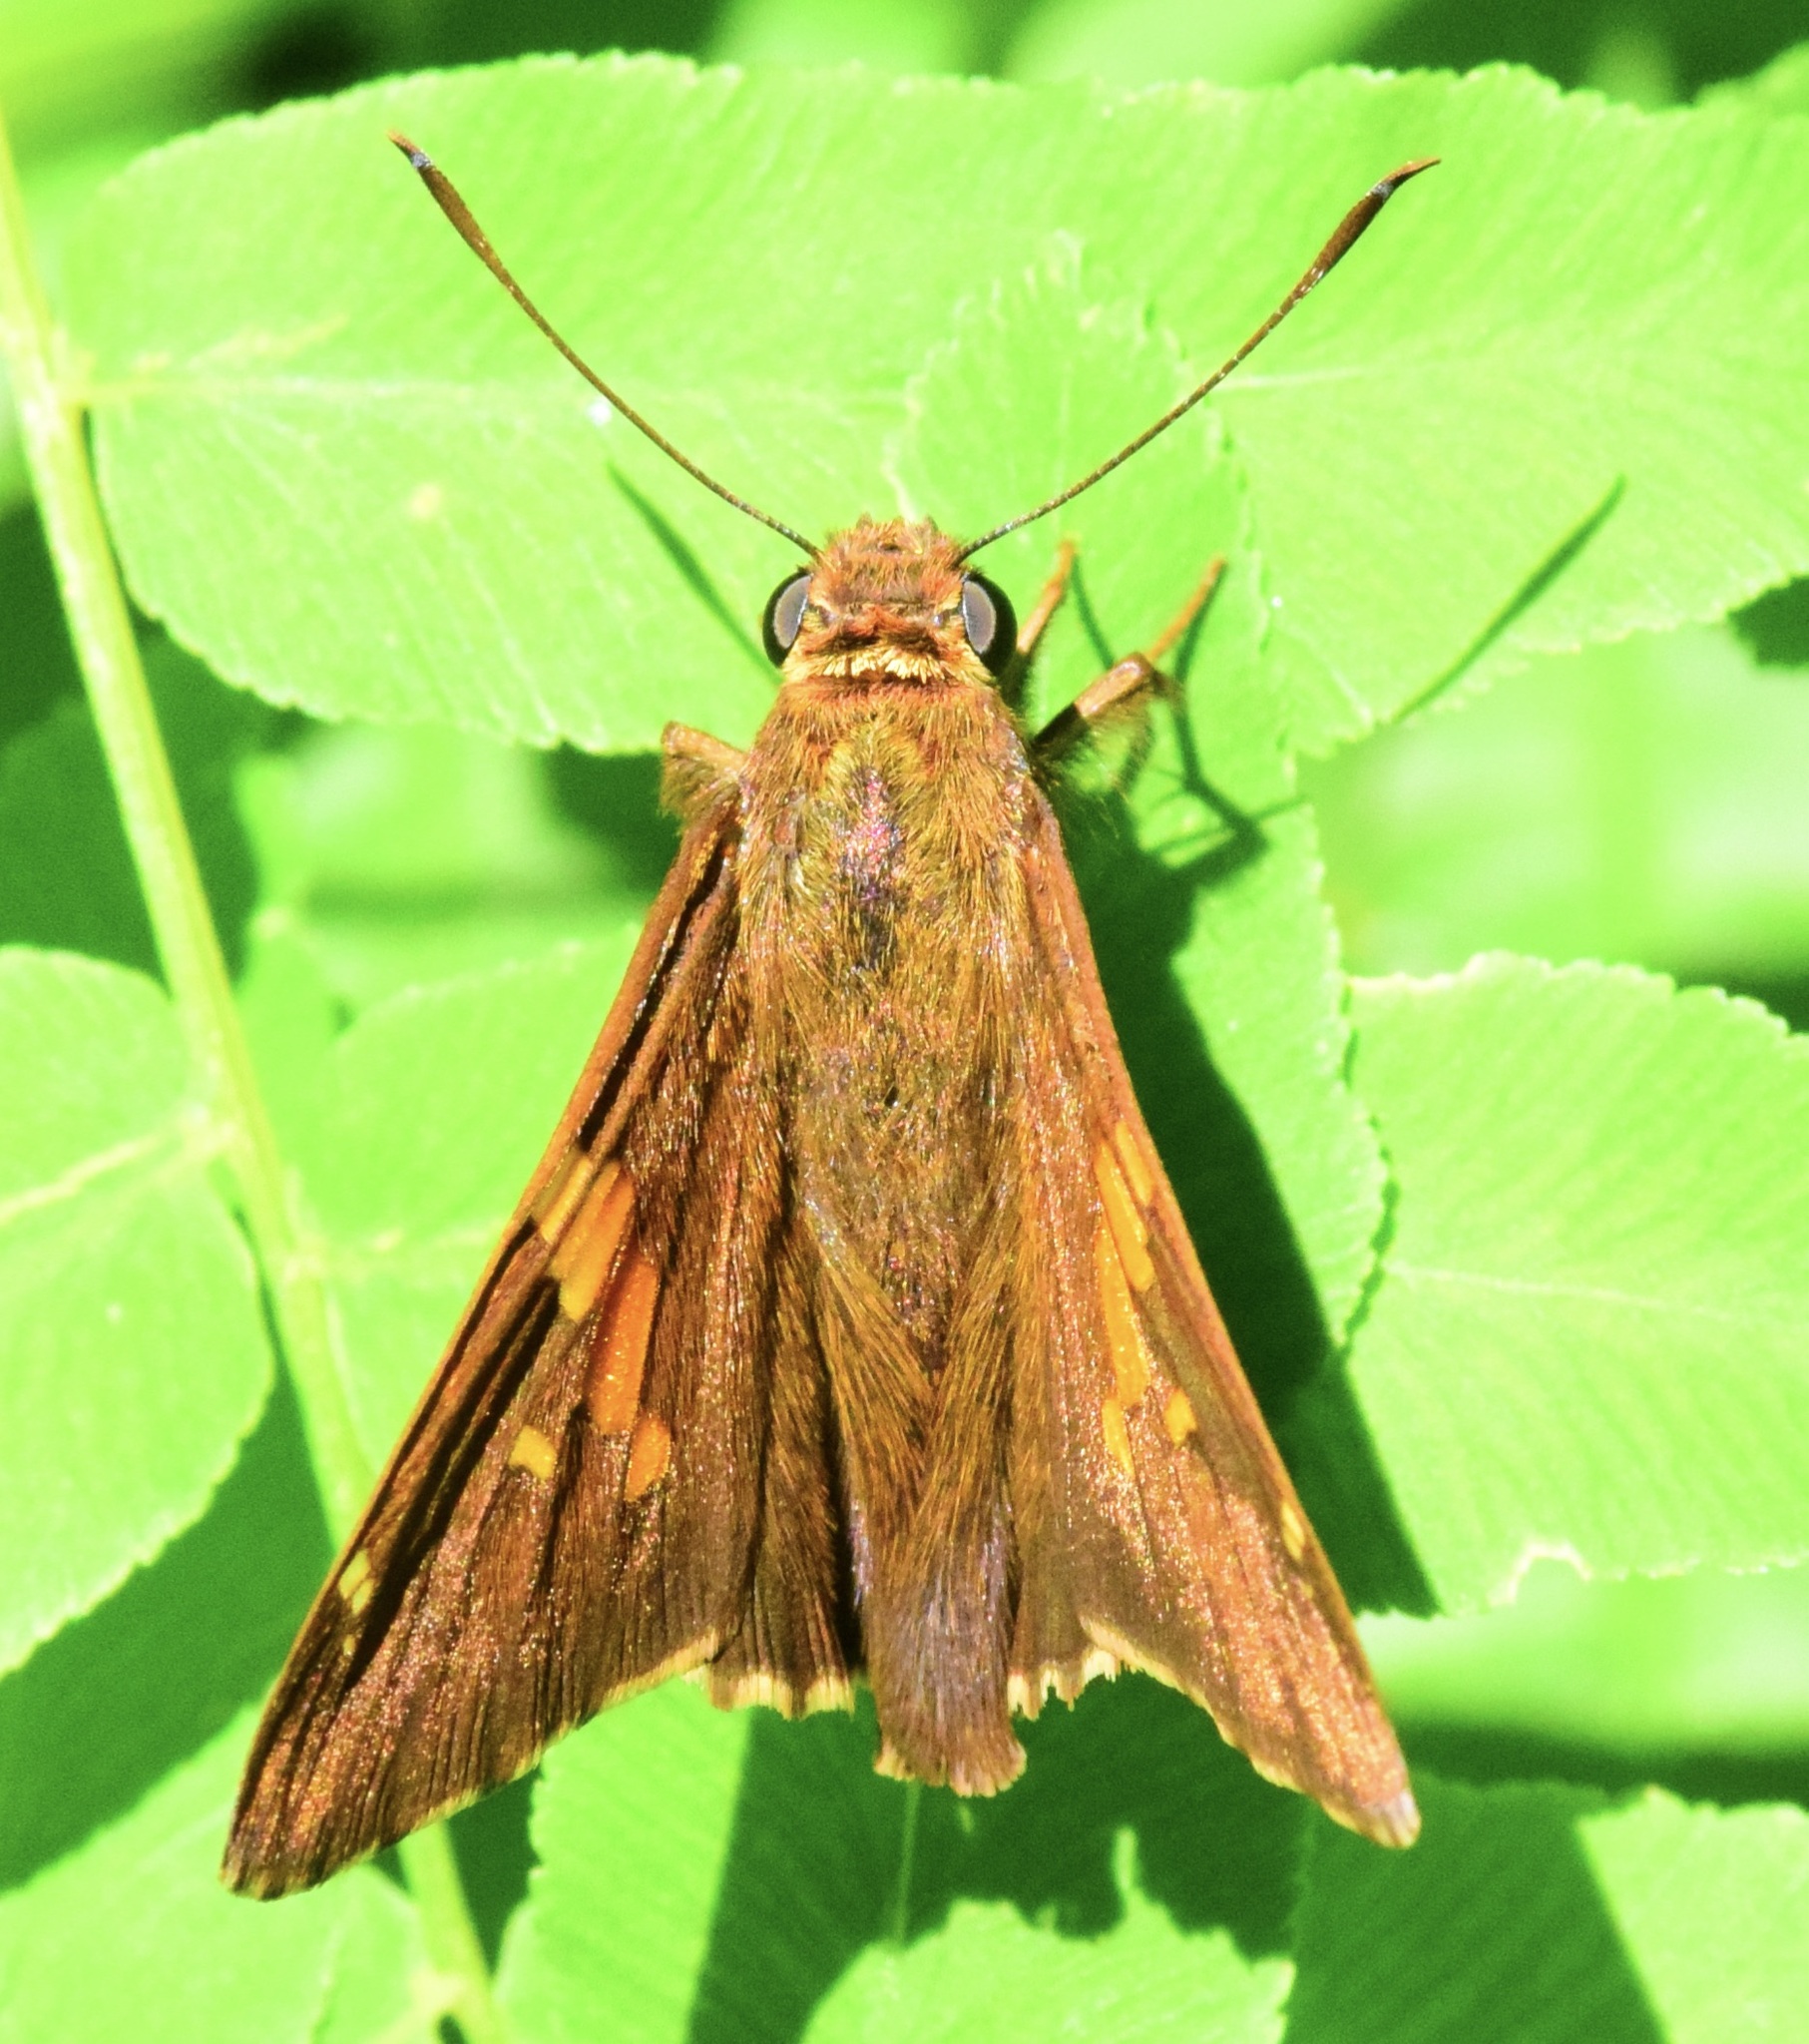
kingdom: Animalia
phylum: Arthropoda
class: Insecta
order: Lepidoptera
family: Hesperiidae
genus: Epargyreus
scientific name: Epargyreus clarus
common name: Silver-spotted skipper
